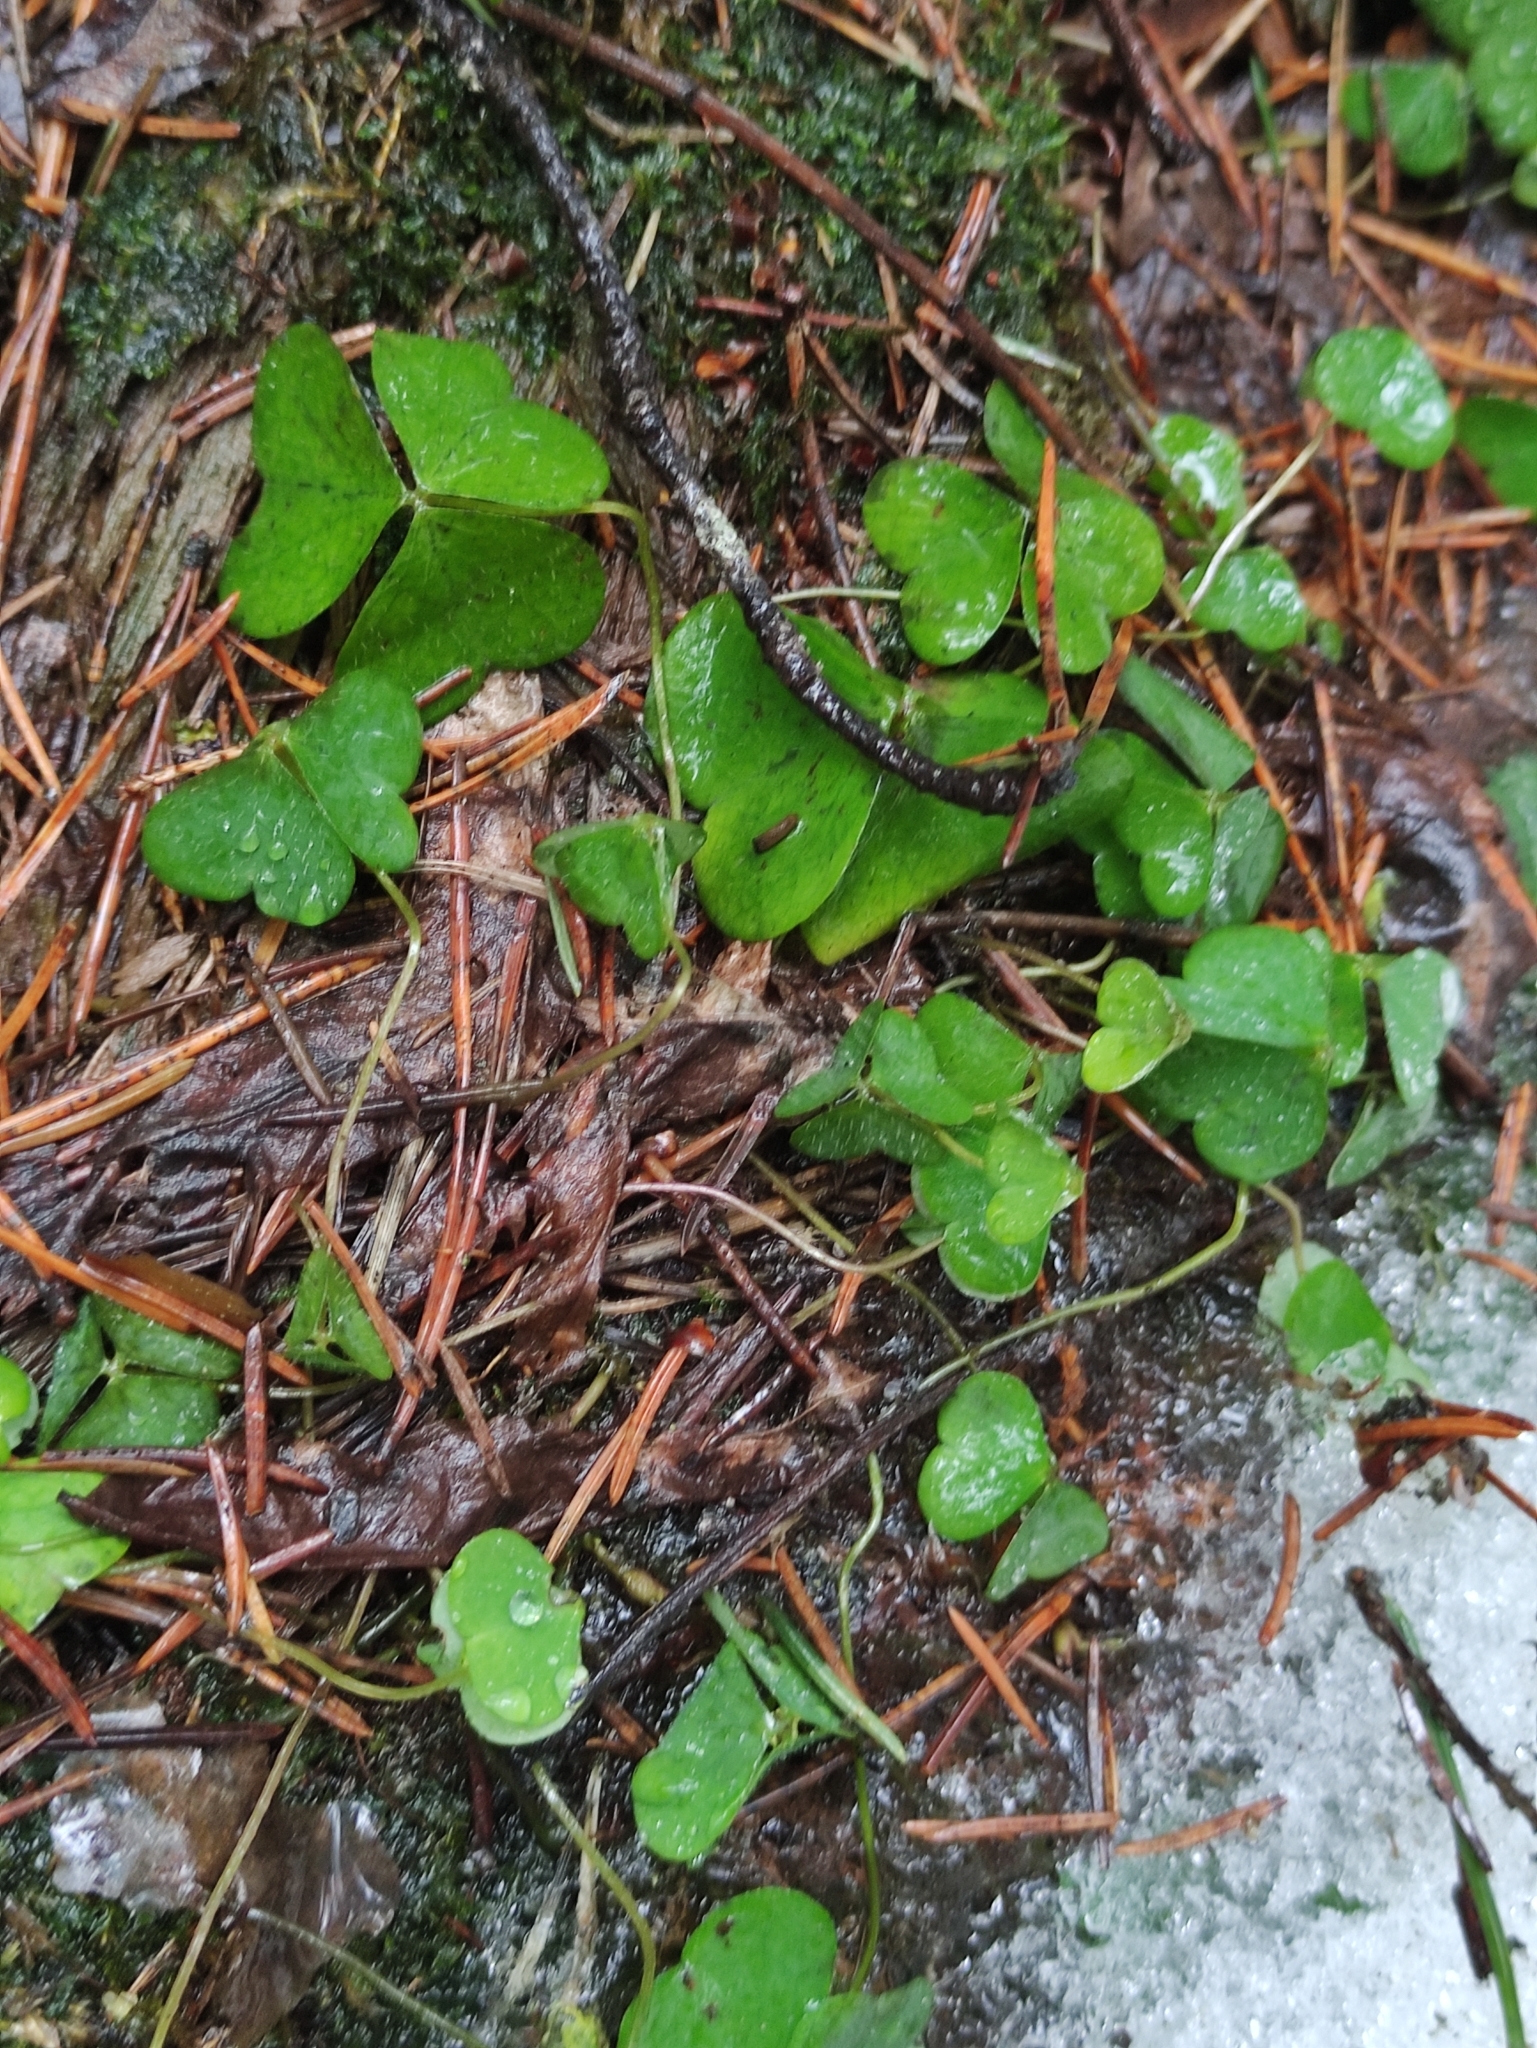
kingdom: Plantae
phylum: Tracheophyta
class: Magnoliopsida
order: Oxalidales
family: Oxalidaceae
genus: Oxalis
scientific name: Oxalis acetosella
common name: Wood-sorrel
